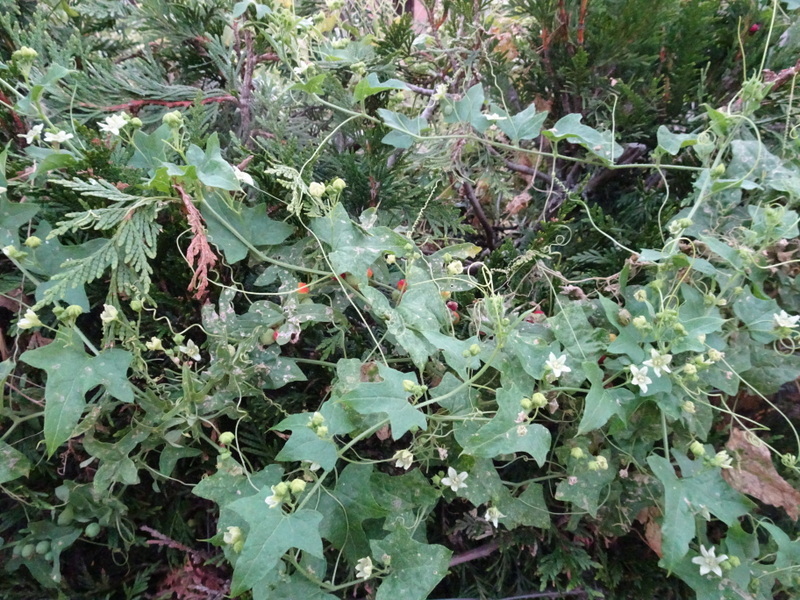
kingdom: Plantae
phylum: Tracheophyta
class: Magnoliopsida
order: Cucurbitales
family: Cucurbitaceae
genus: Bryonia
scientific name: Bryonia cretica
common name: Cretan bryony
